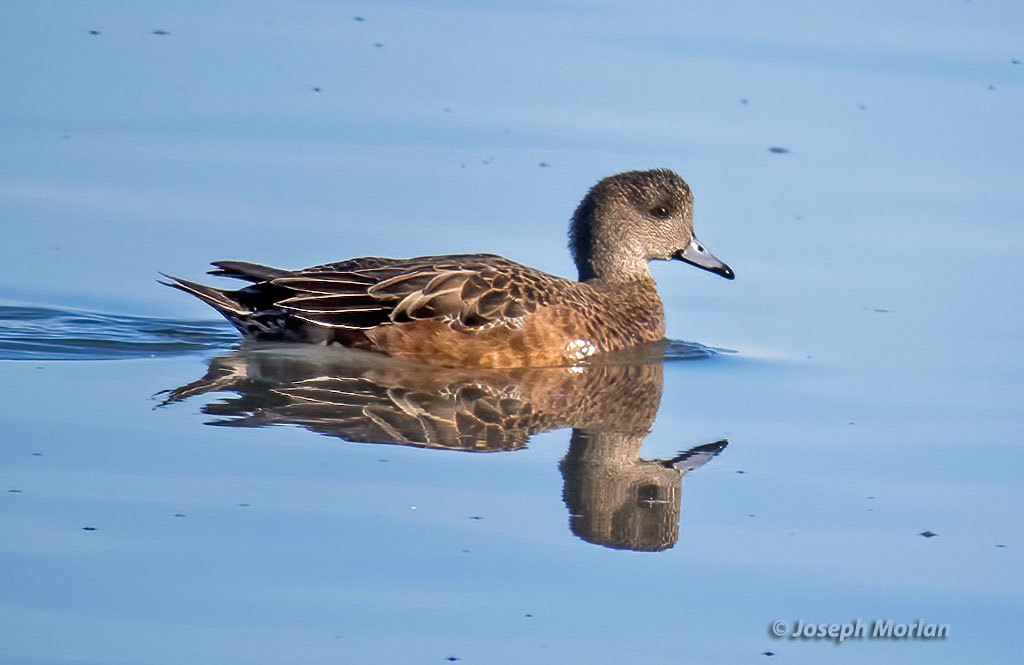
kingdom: Animalia
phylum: Chordata
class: Aves
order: Anseriformes
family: Anatidae
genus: Mareca
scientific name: Mareca americana
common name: American wigeon
